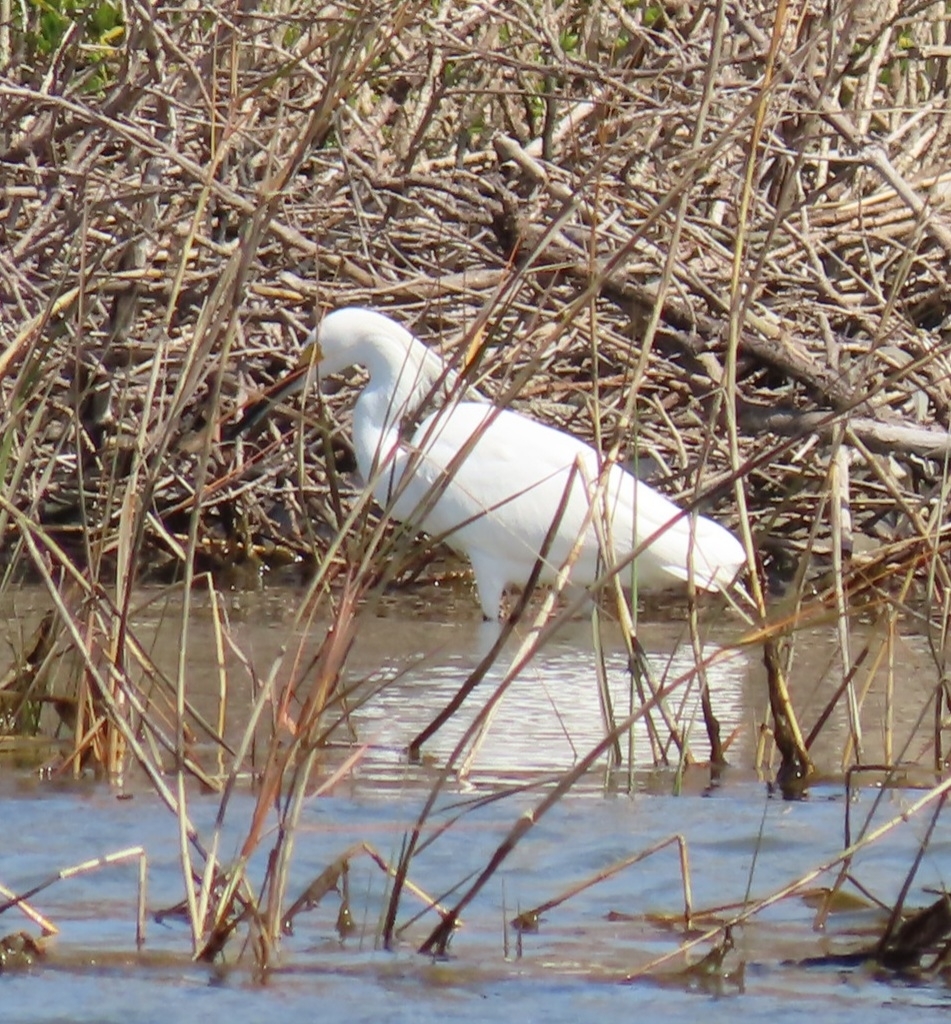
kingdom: Animalia
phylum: Chordata
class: Aves
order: Pelecaniformes
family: Ardeidae
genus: Egretta
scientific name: Egretta thula
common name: Snowy egret
